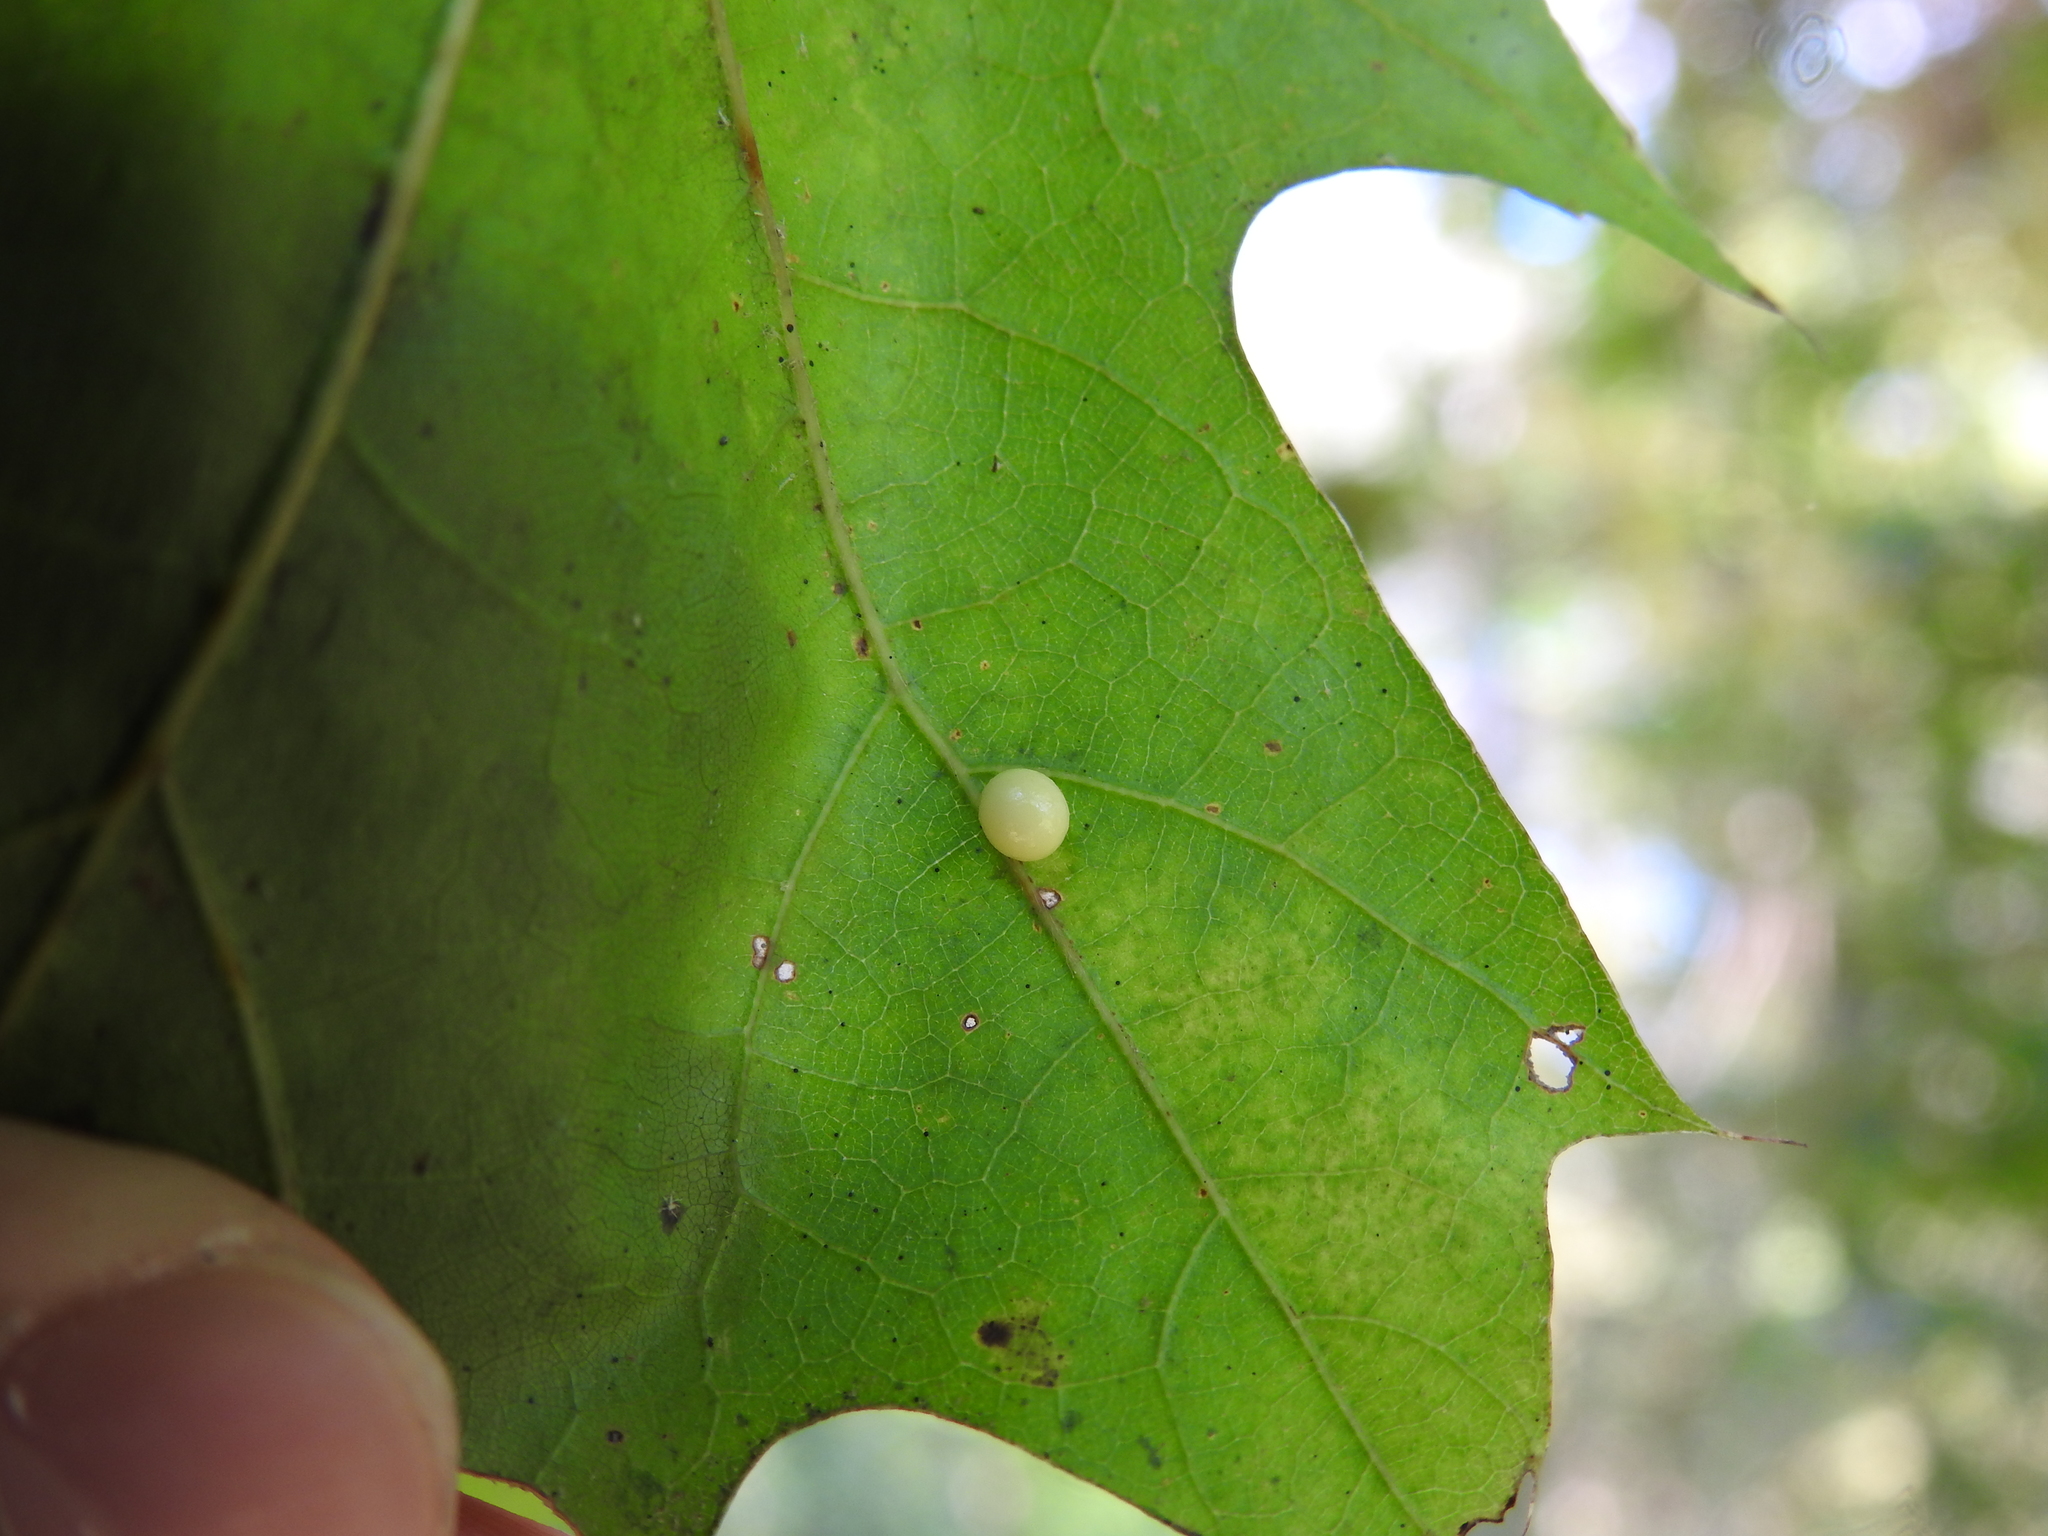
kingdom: Animalia
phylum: Arthropoda
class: Insecta
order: Hymenoptera
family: Cynipidae
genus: Zopheroteras
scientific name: Zopheroteras
